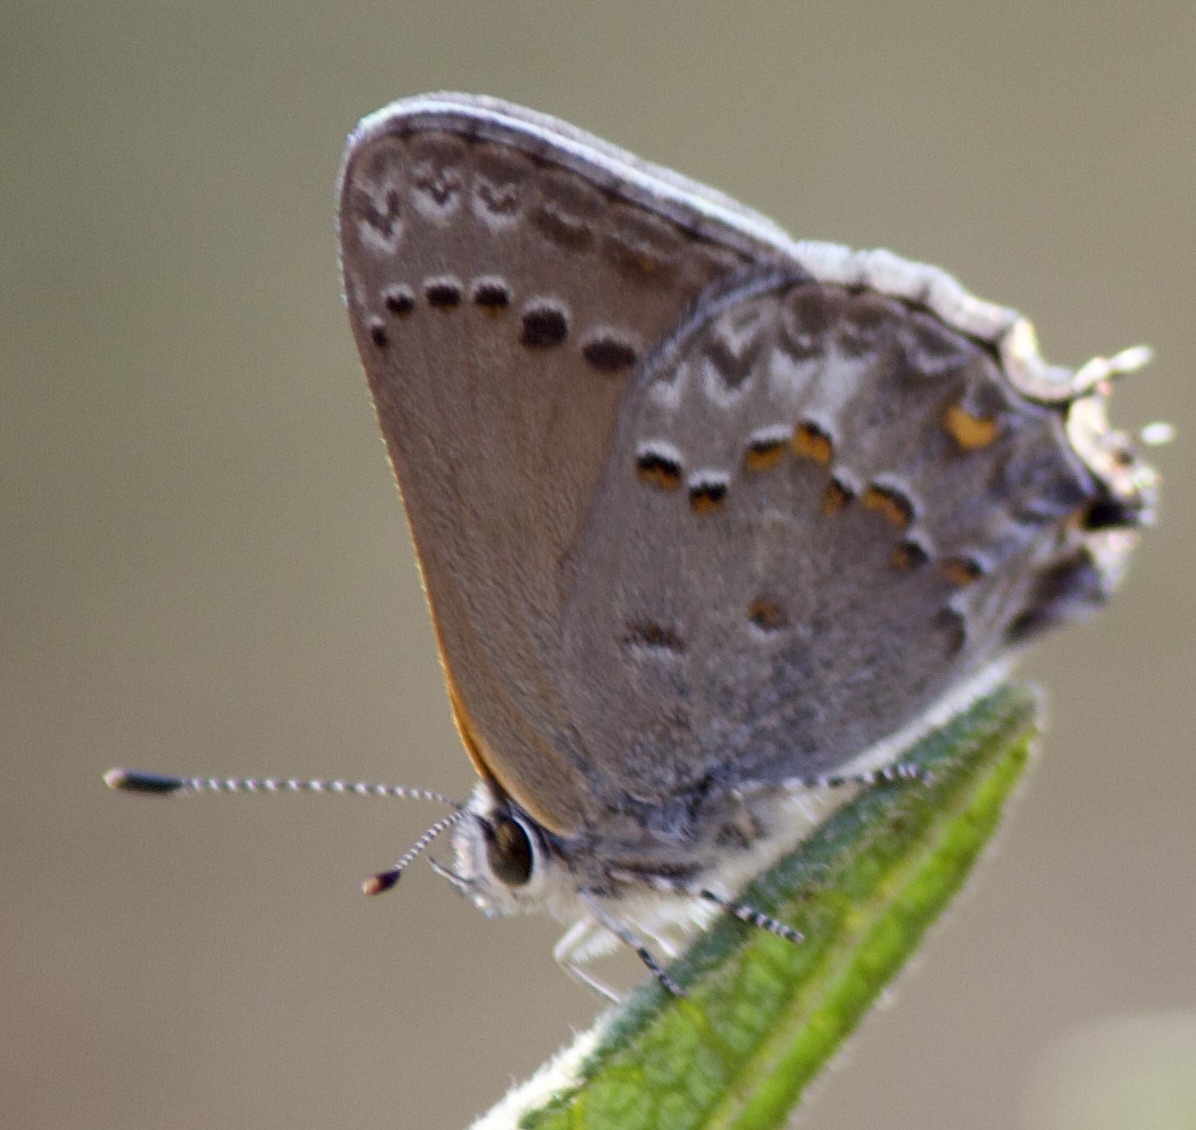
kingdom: Animalia
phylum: Arthropoda
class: Insecta
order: Lepidoptera
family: Lycaenidae
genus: Strymon
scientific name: Strymon eurytulus
